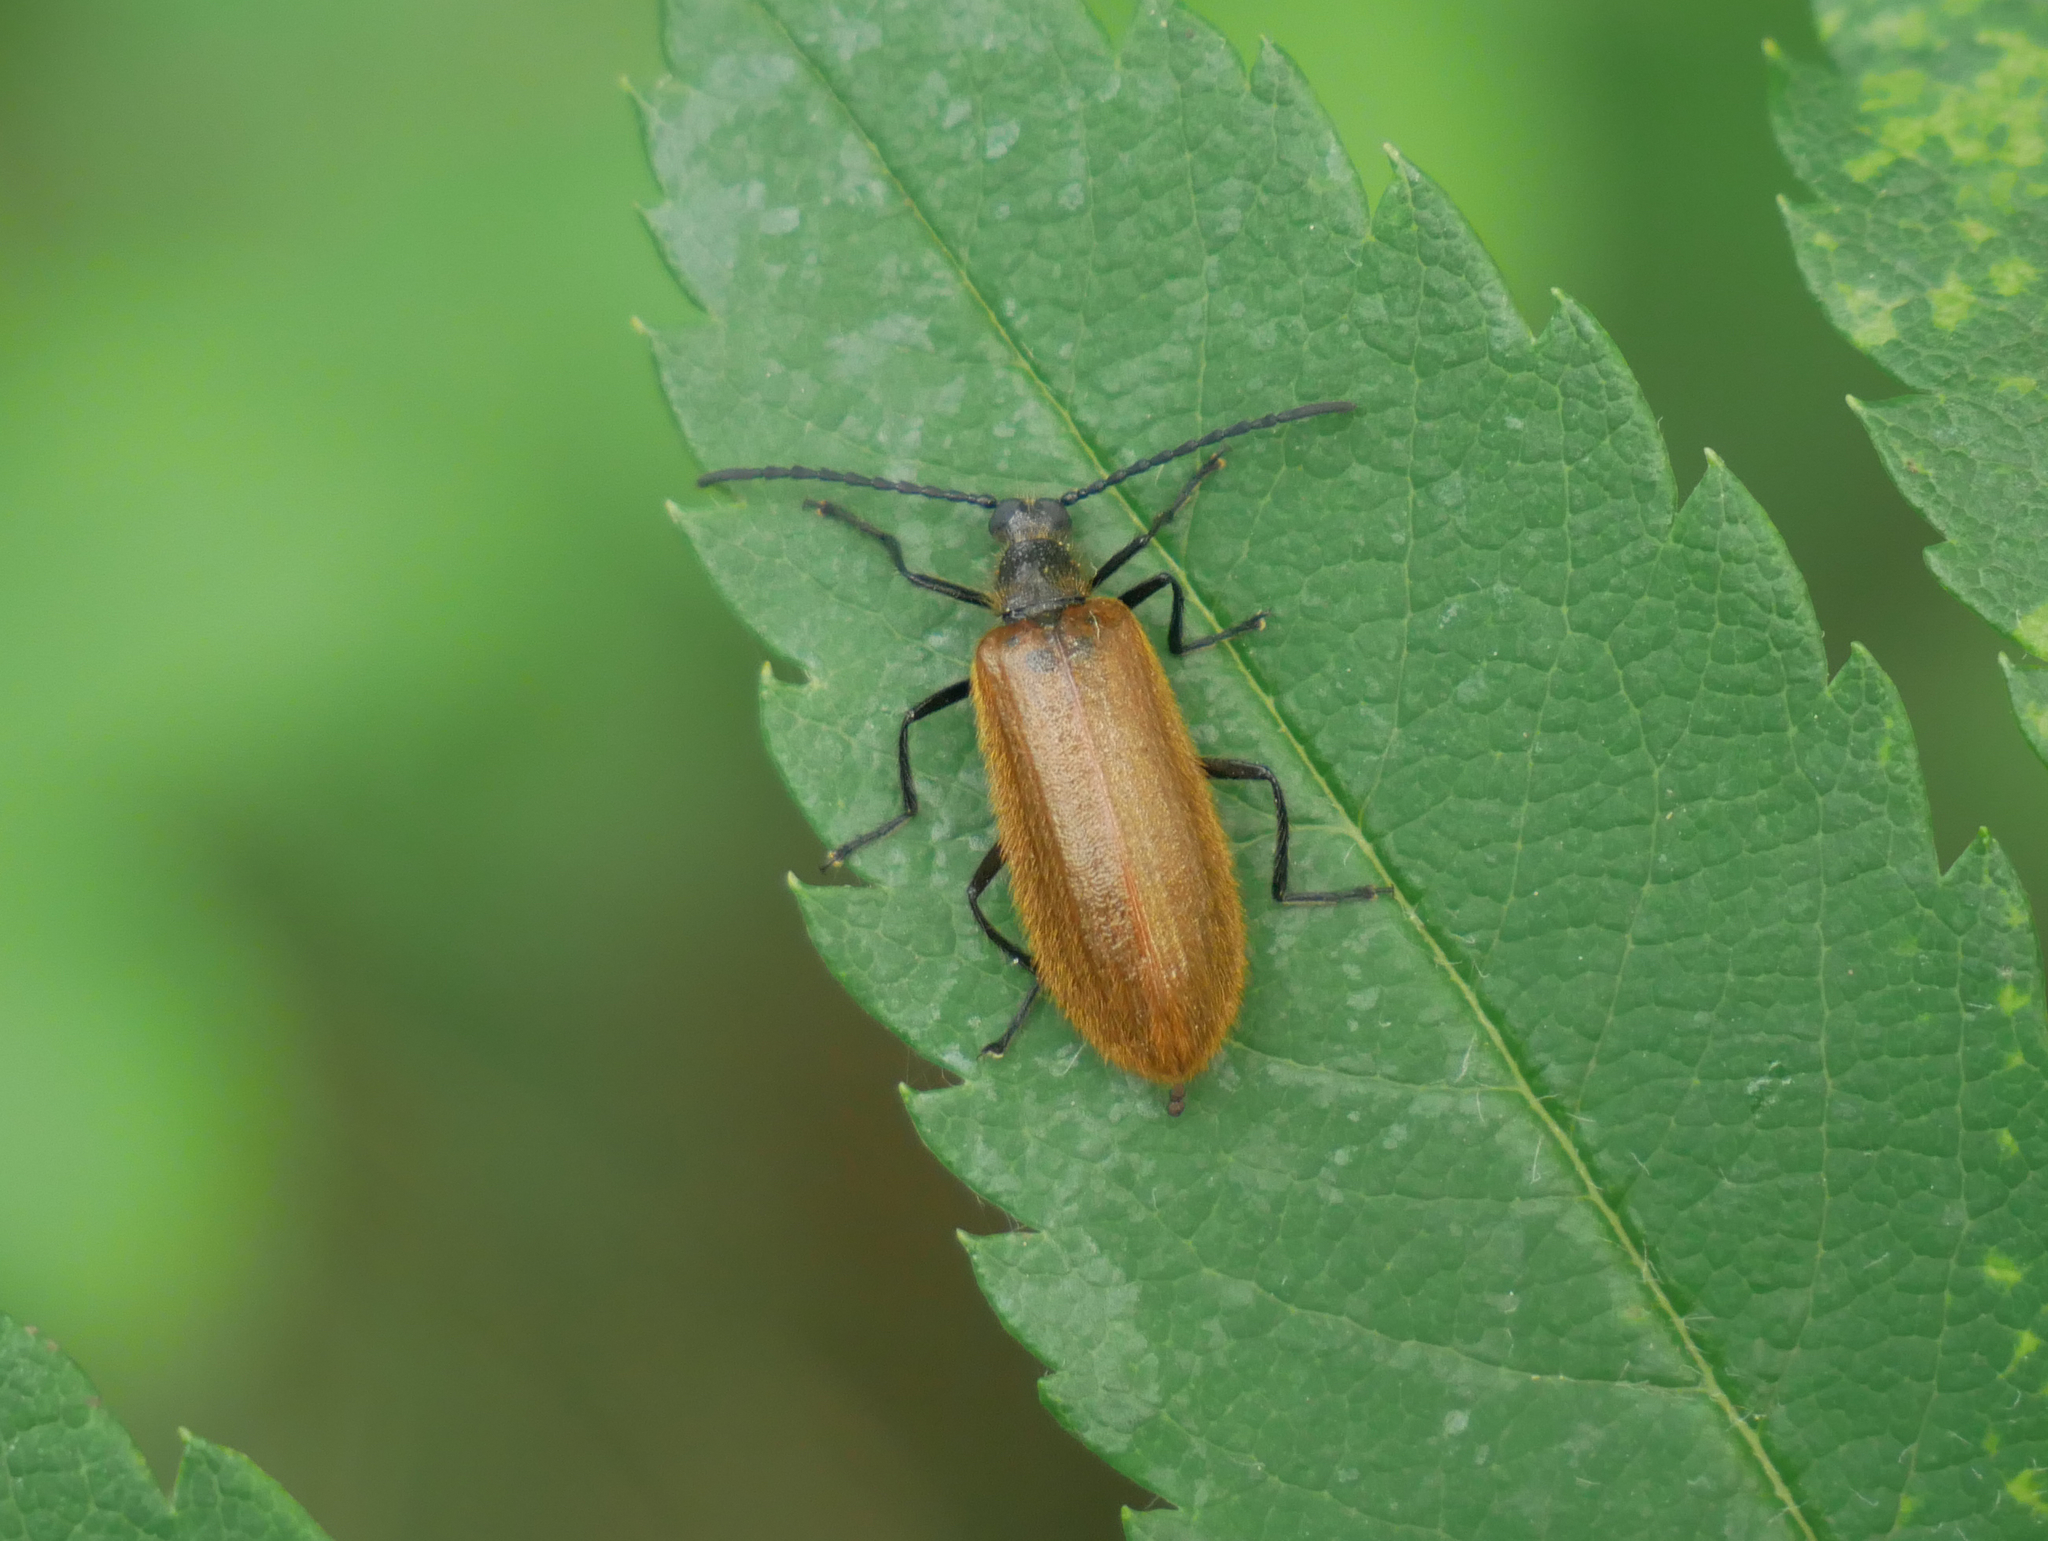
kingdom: Animalia
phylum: Arthropoda
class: Insecta
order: Coleoptera
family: Tenebrionidae
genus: Lagria
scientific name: Lagria hirta
